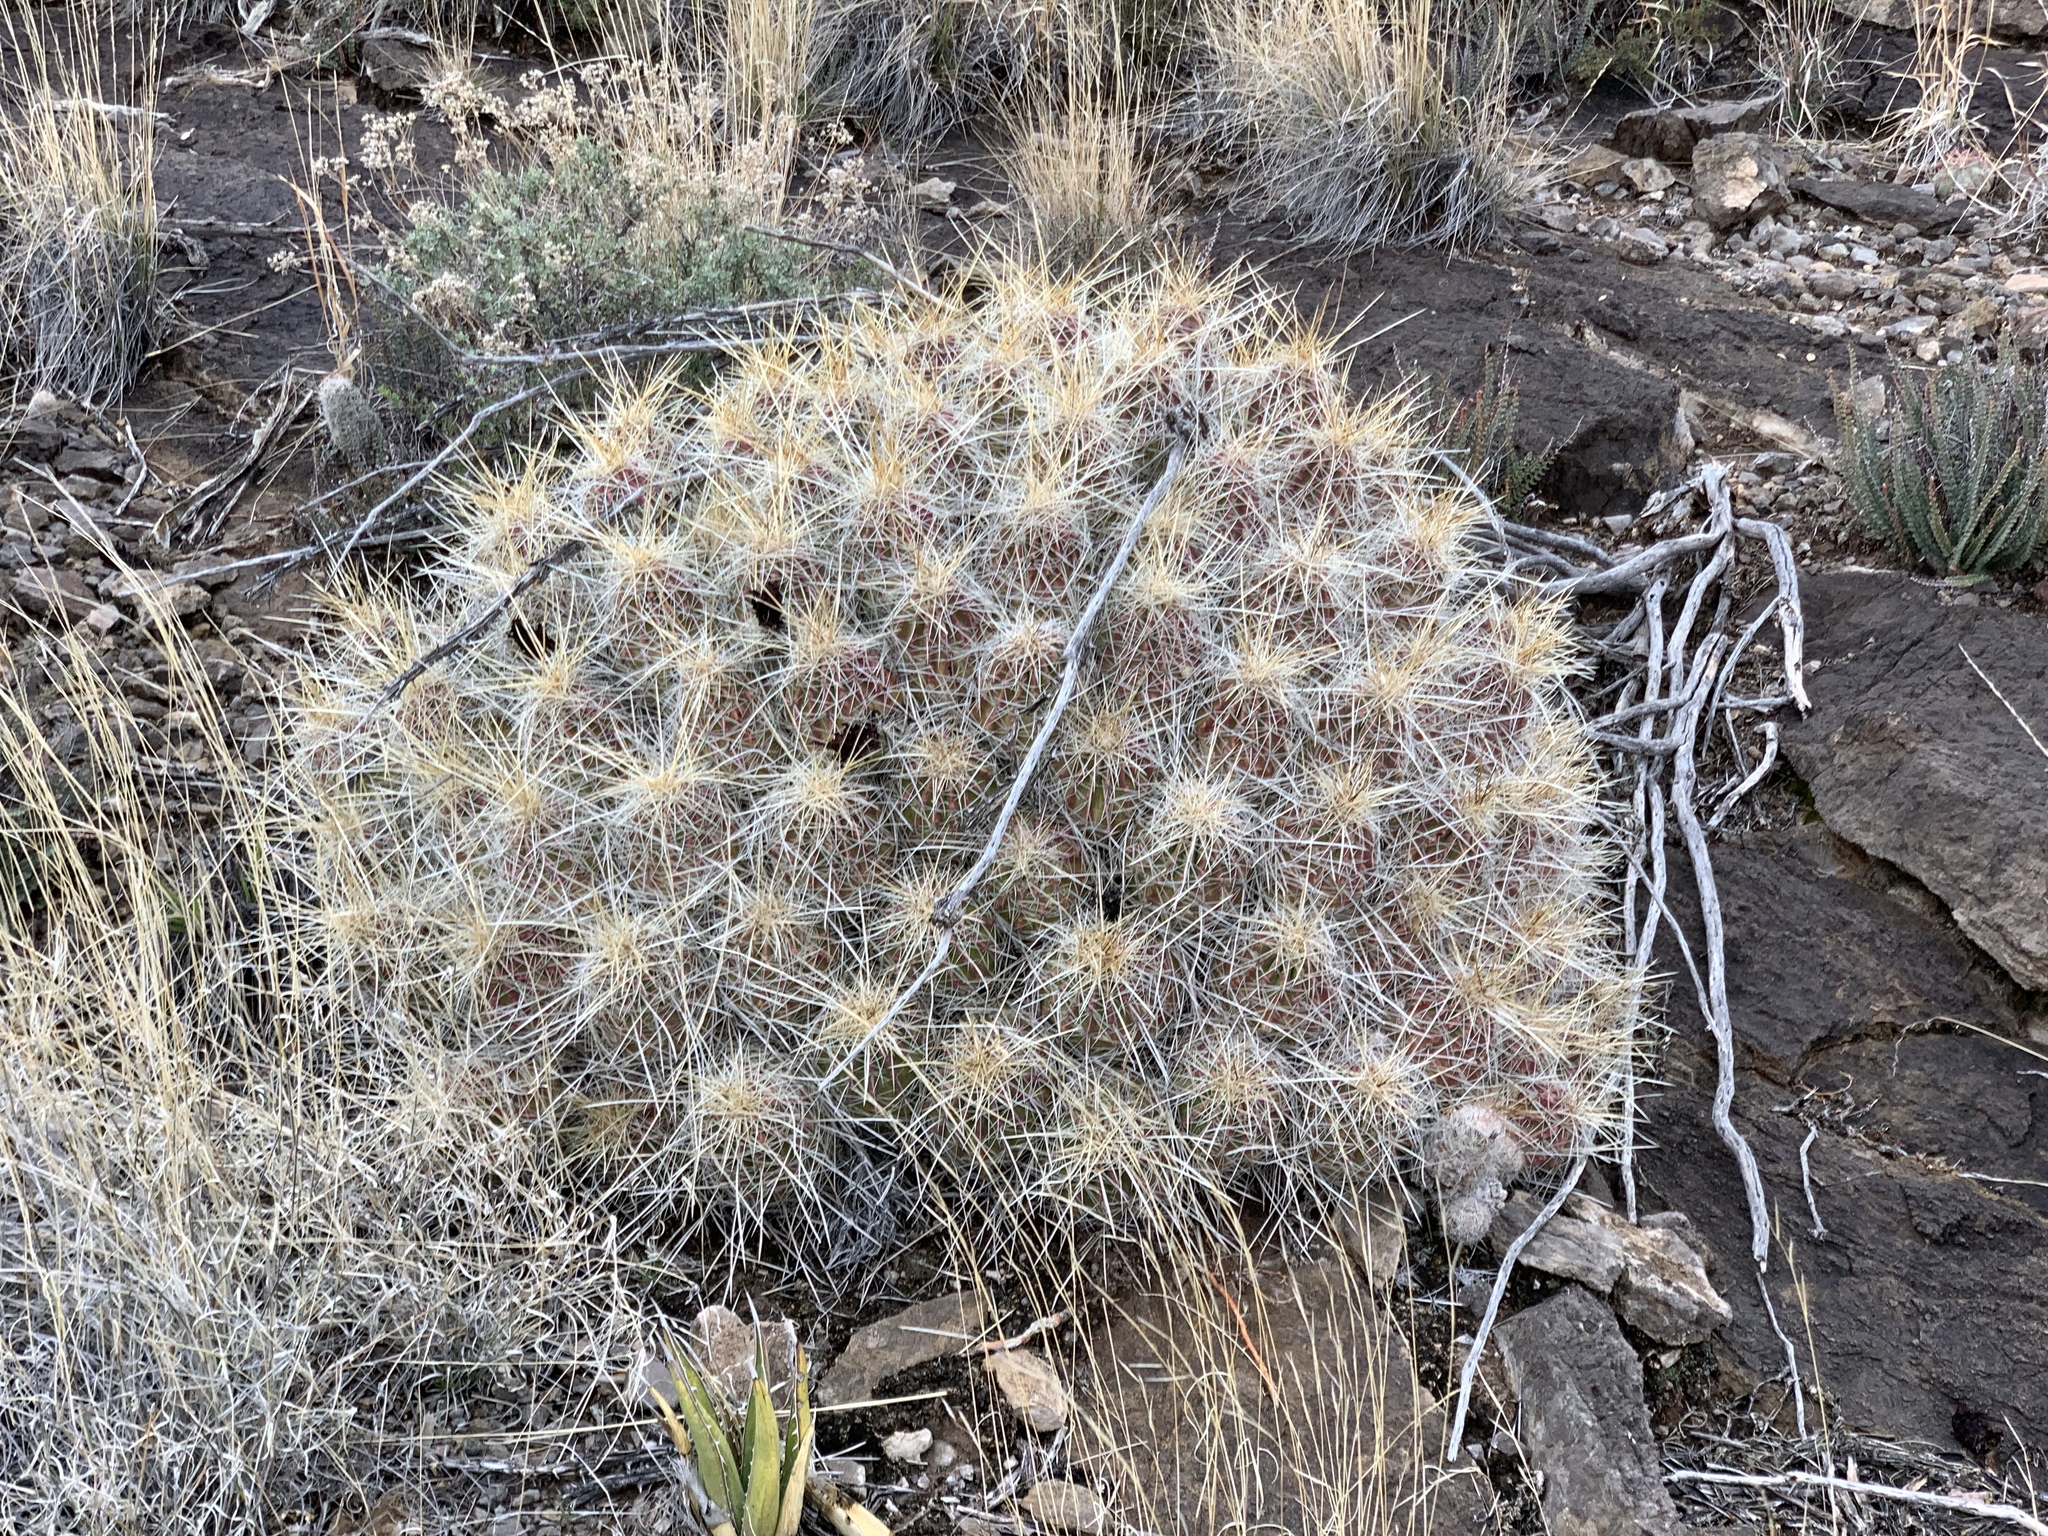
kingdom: Plantae
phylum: Tracheophyta
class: Magnoliopsida
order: Caryophyllales
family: Cactaceae
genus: Echinocereus
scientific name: Echinocereus stramineus
